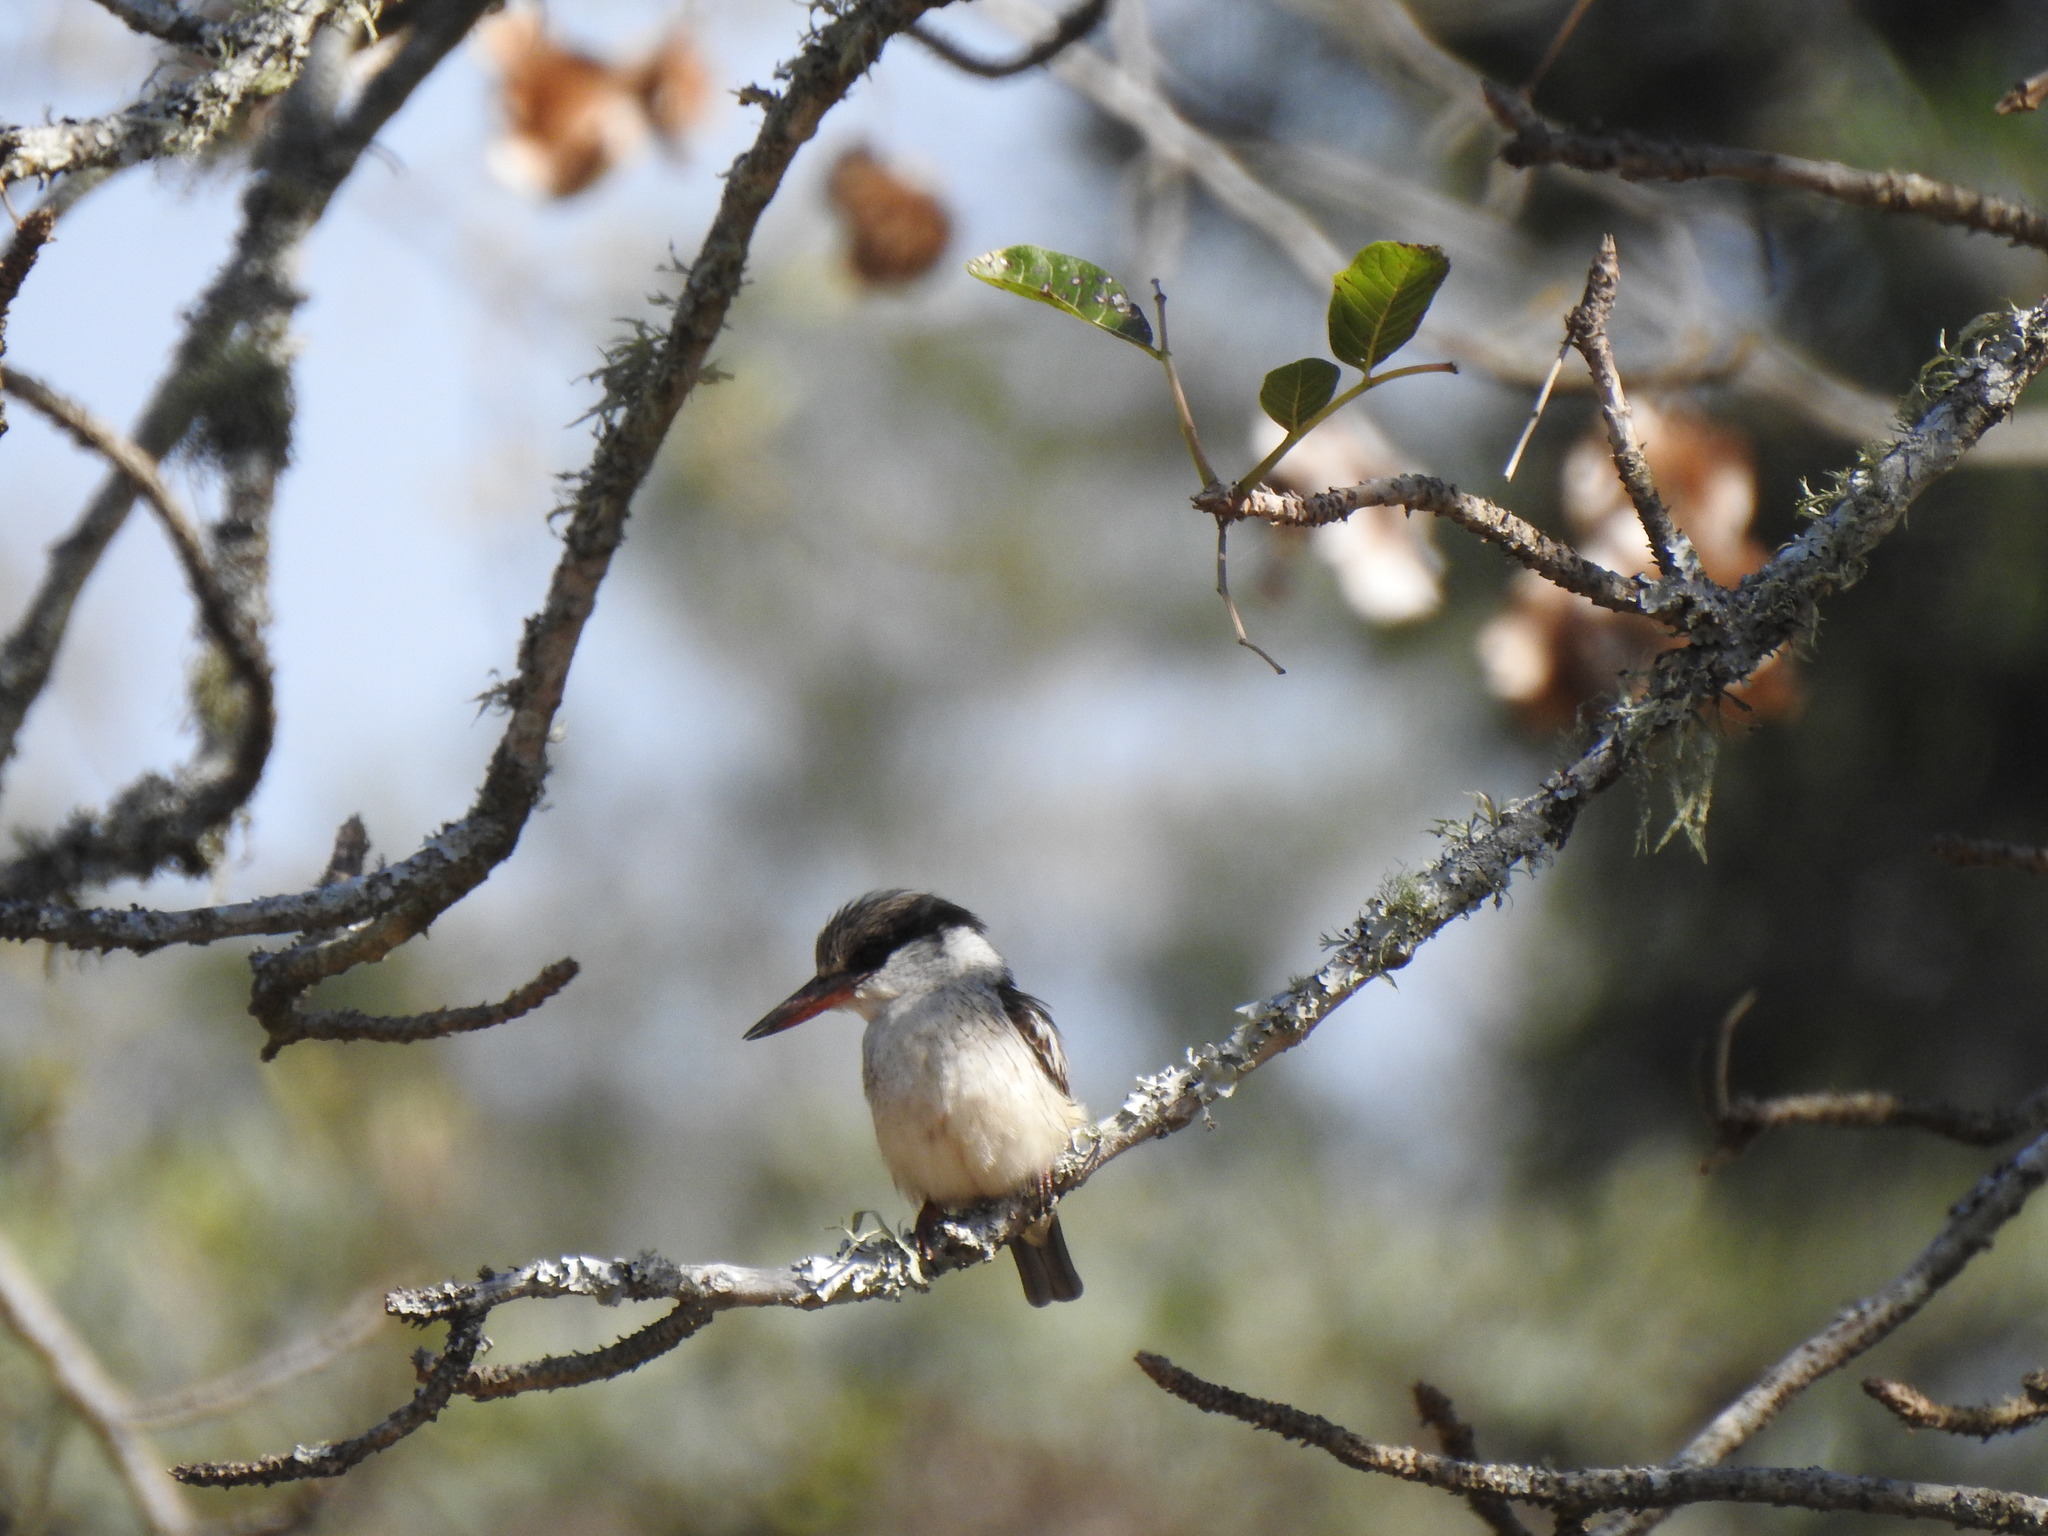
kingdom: Animalia
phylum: Chordata
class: Aves
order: Coraciiformes
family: Alcedinidae
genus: Halcyon
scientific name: Halcyon chelicuti
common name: Striped kingfisher
